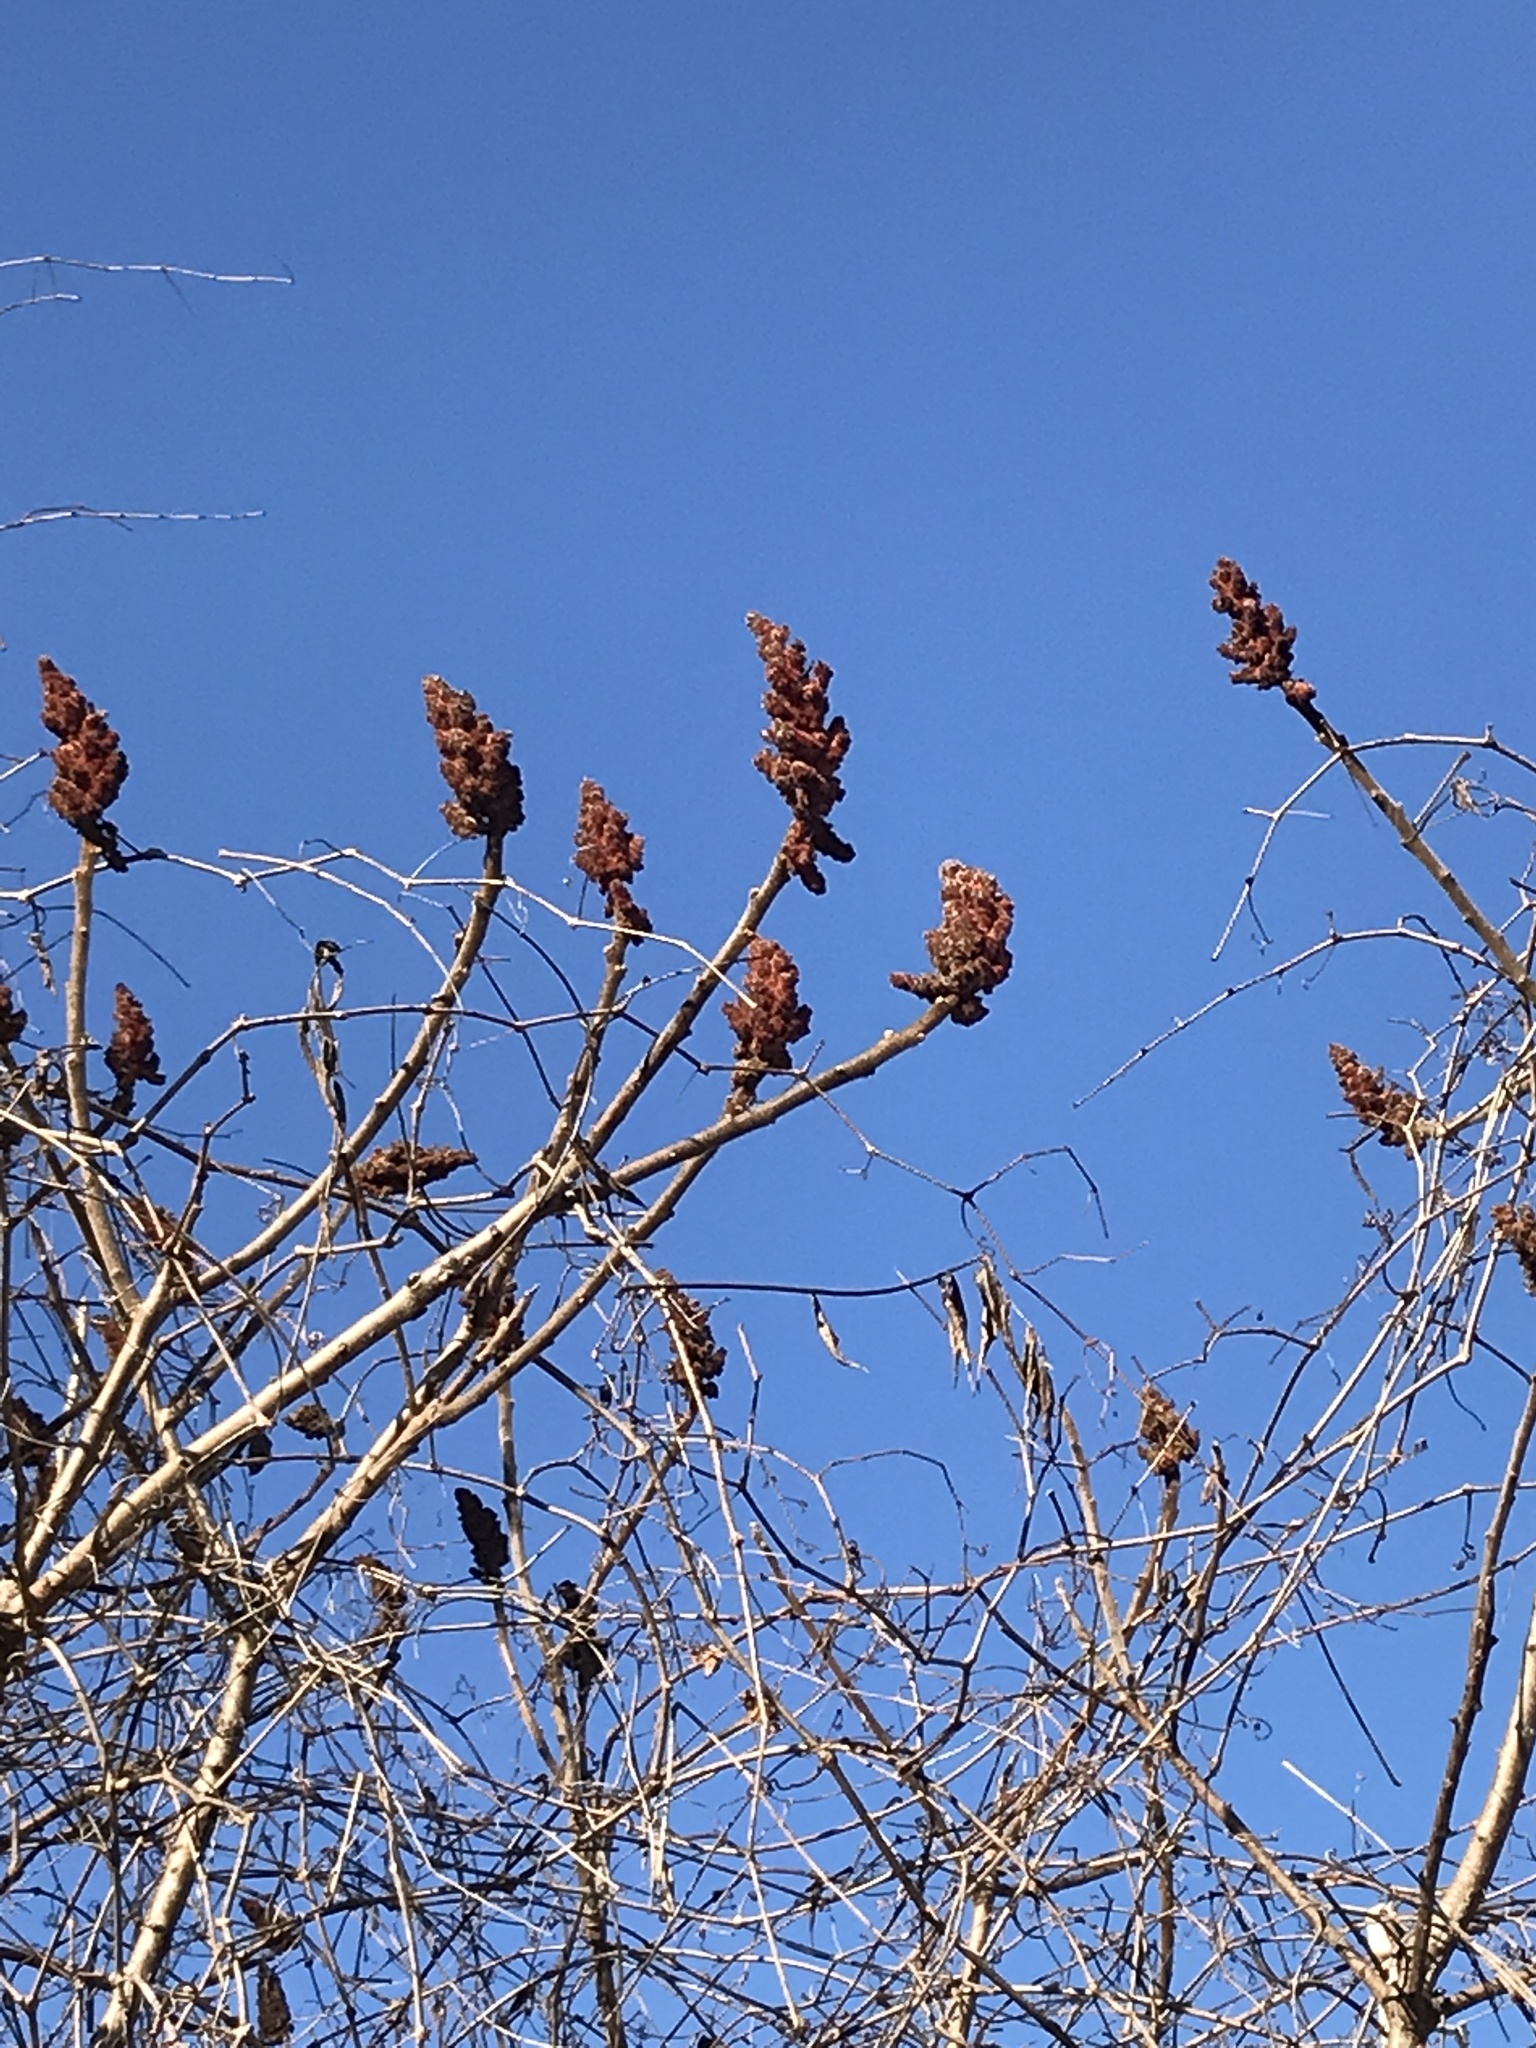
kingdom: Plantae
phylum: Tracheophyta
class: Magnoliopsida
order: Sapindales
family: Anacardiaceae
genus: Rhus
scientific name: Rhus typhina
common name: Staghorn sumac
